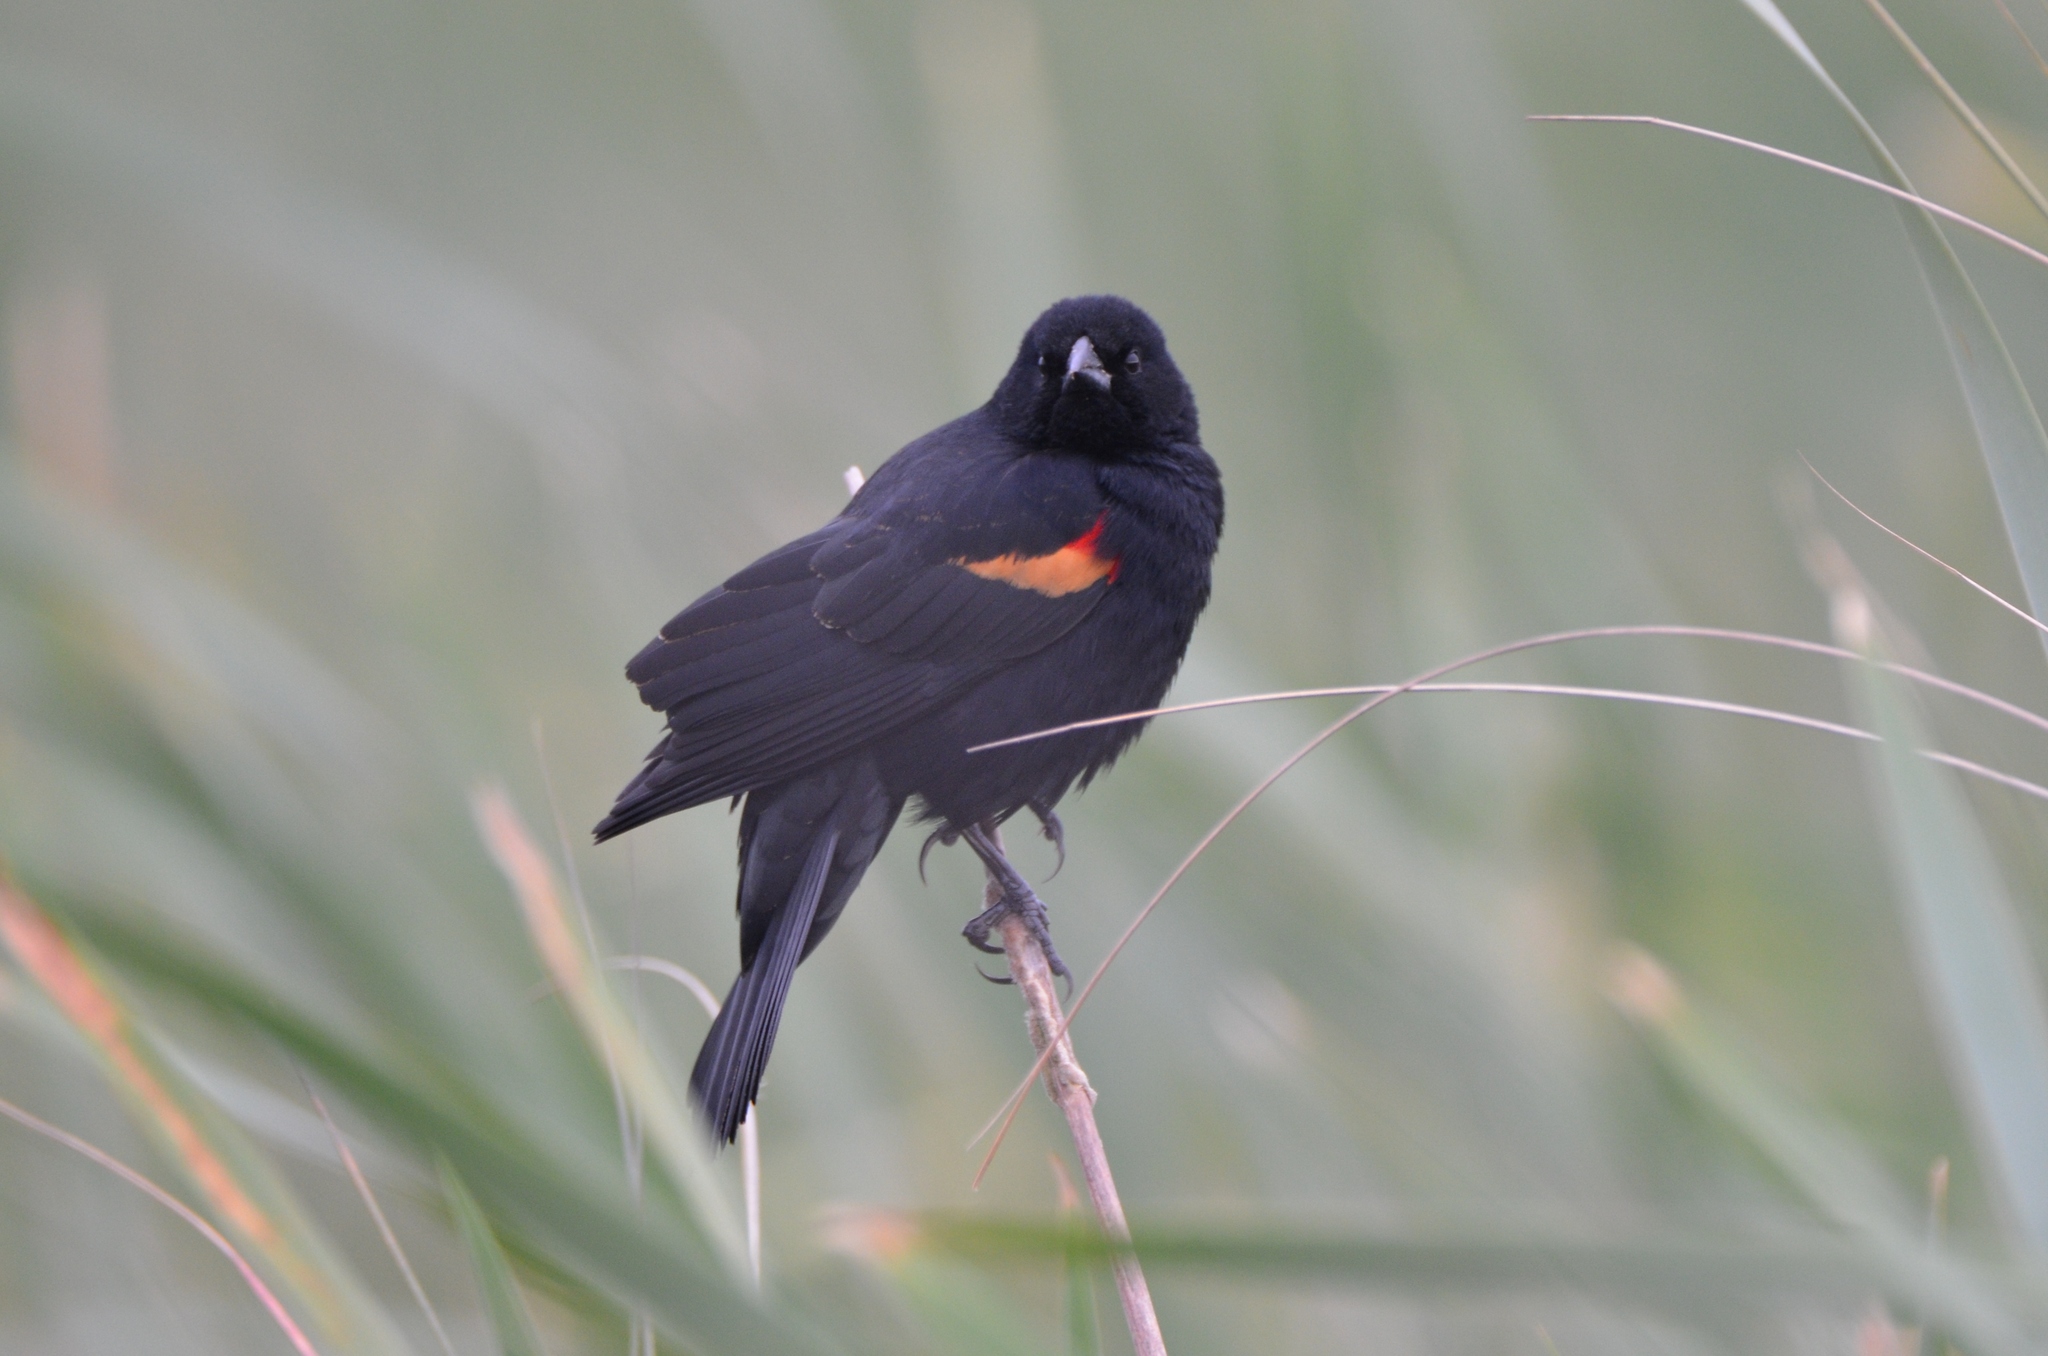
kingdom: Animalia
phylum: Chordata
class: Aves
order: Passeriformes
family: Icteridae
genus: Agelaius
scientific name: Agelaius phoeniceus
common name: Red-winged blackbird
